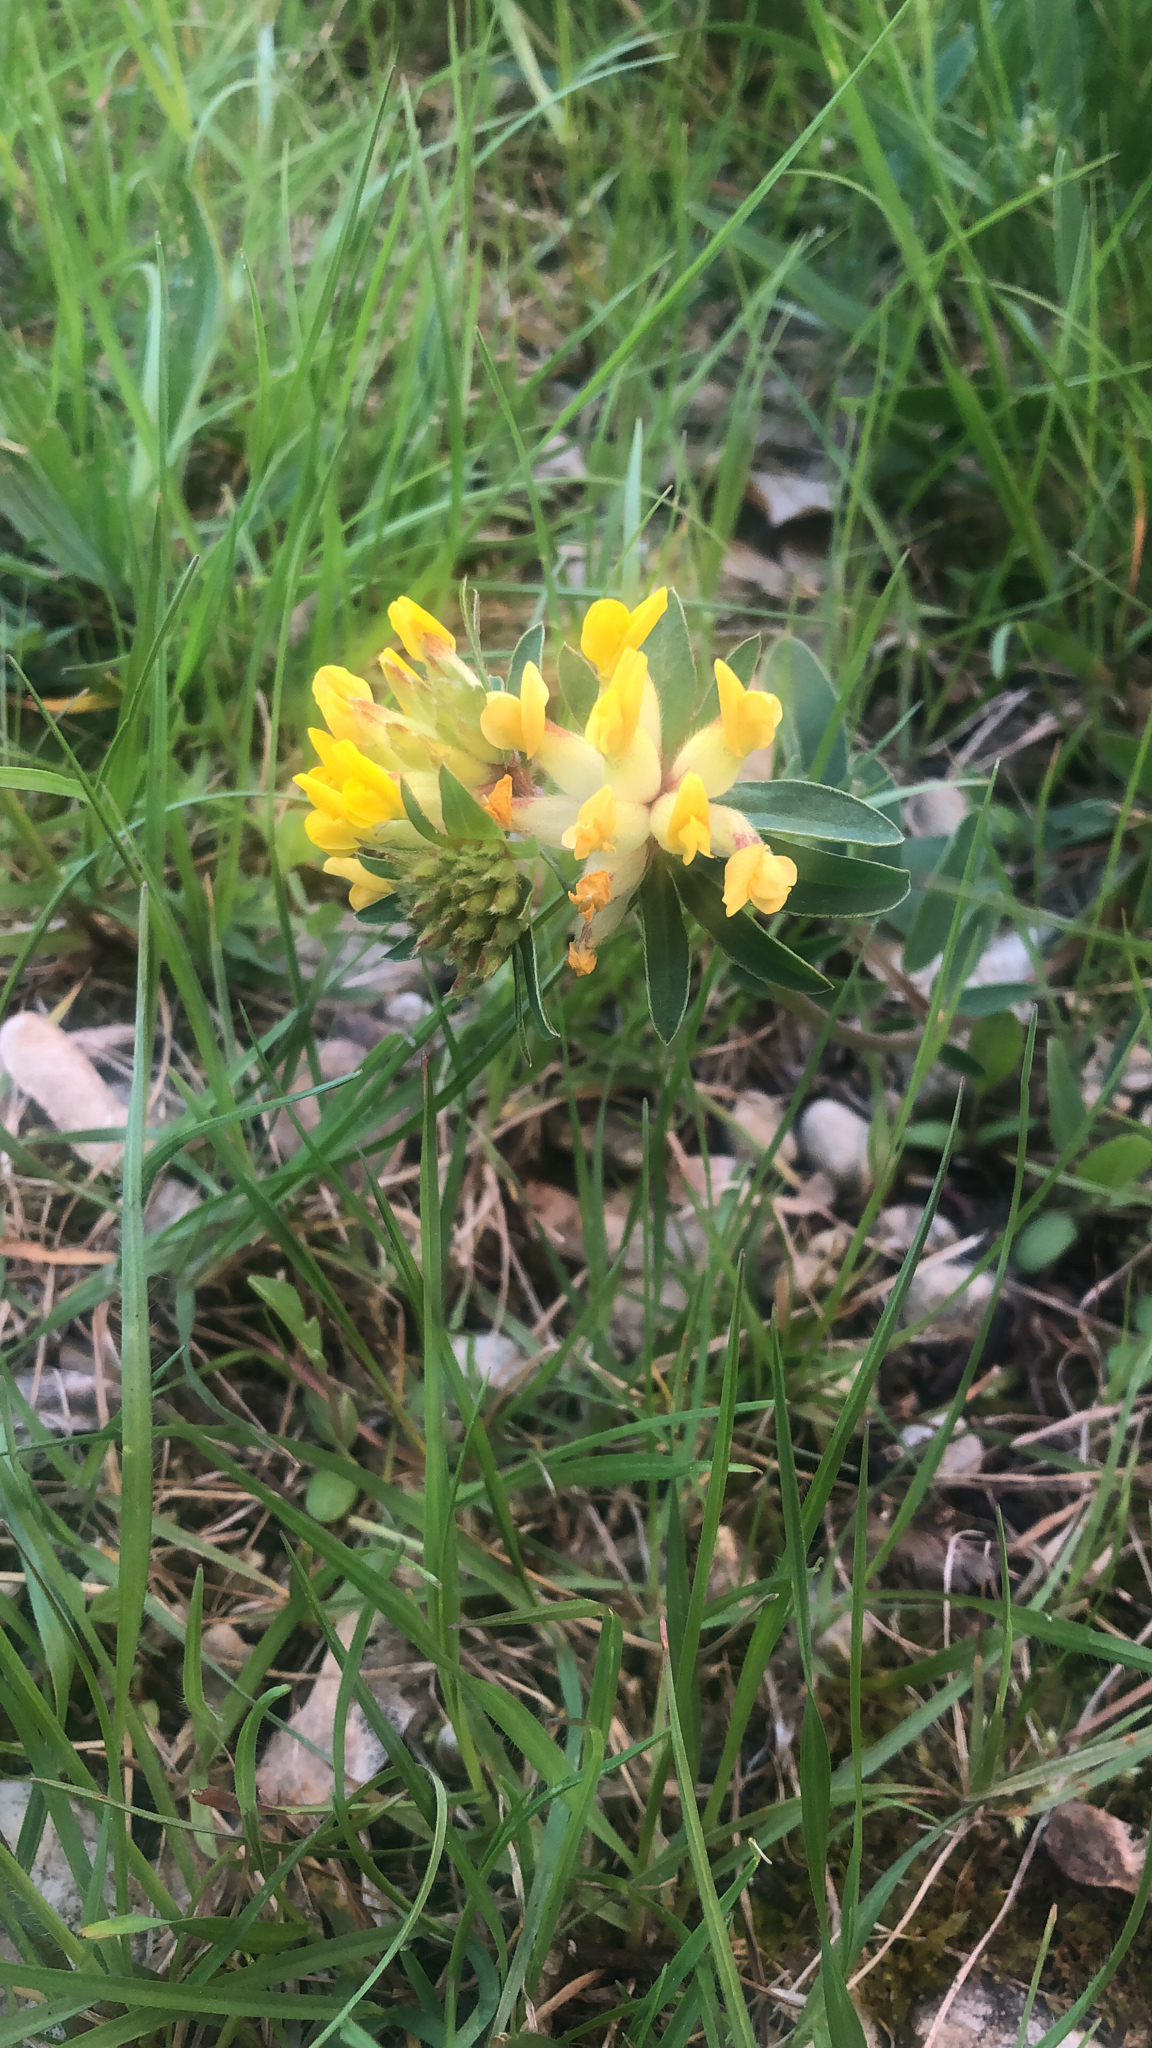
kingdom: Plantae
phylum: Tracheophyta
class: Magnoliopsida
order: Fabales
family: Fabaceae
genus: Anthyllis
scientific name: Anthyllis vulneraria
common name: Kidney vetch
